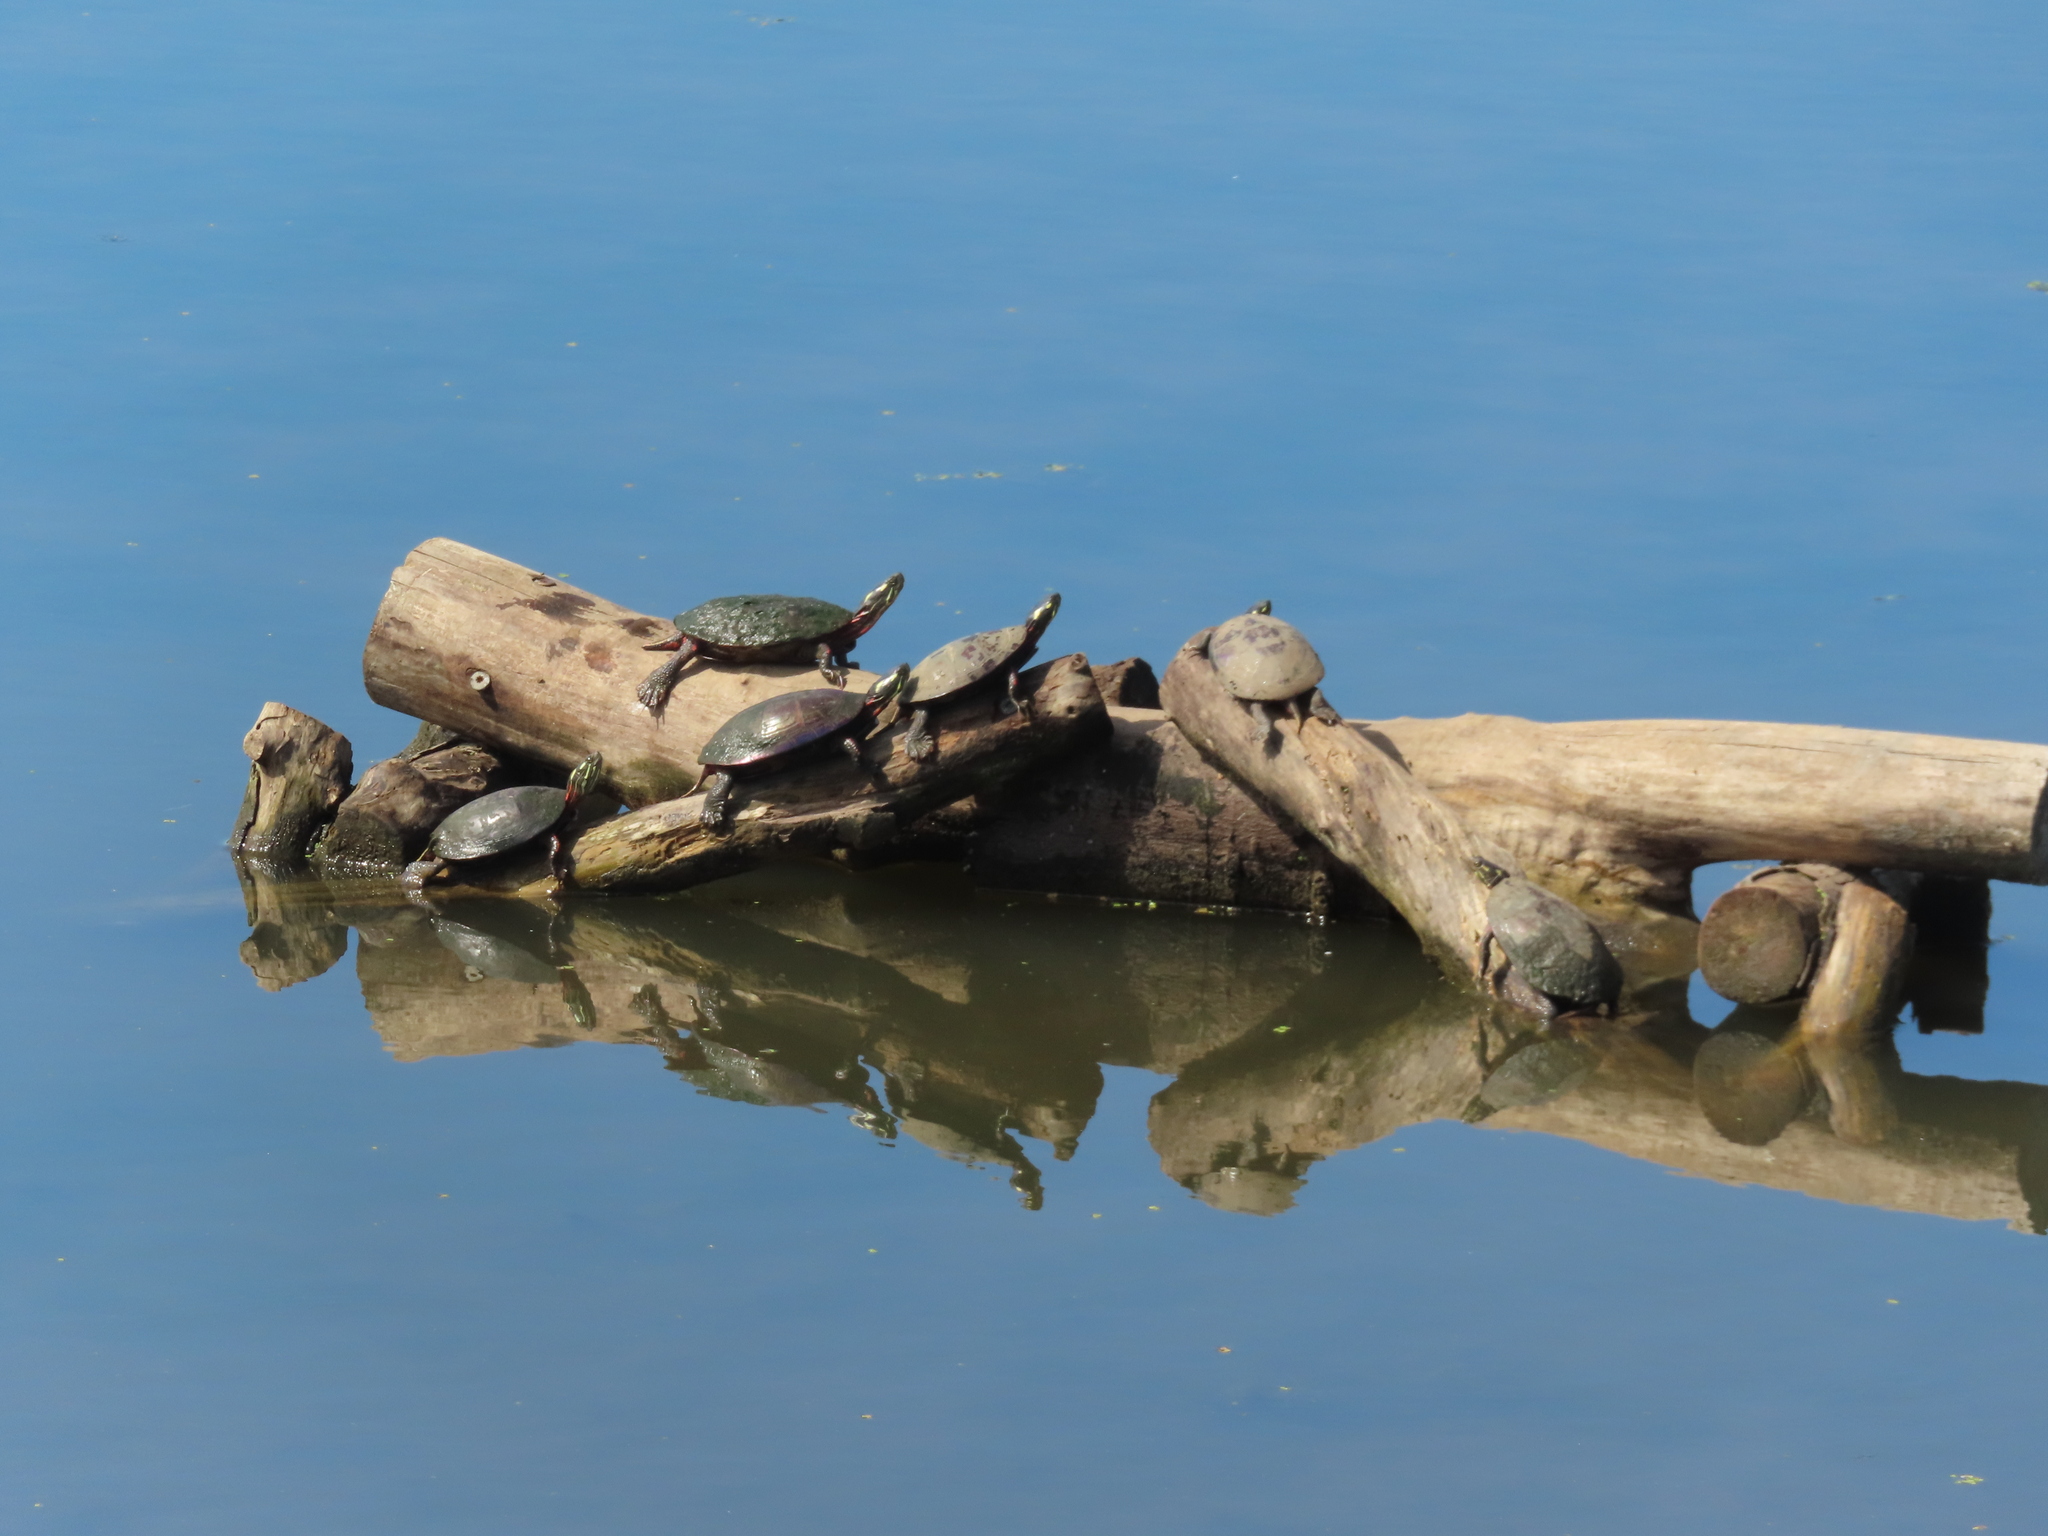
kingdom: Animalia
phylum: Chordata
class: Testudines
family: Emydidae
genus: Chrysemys
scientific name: Chrysemys picta
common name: Painted turtle
